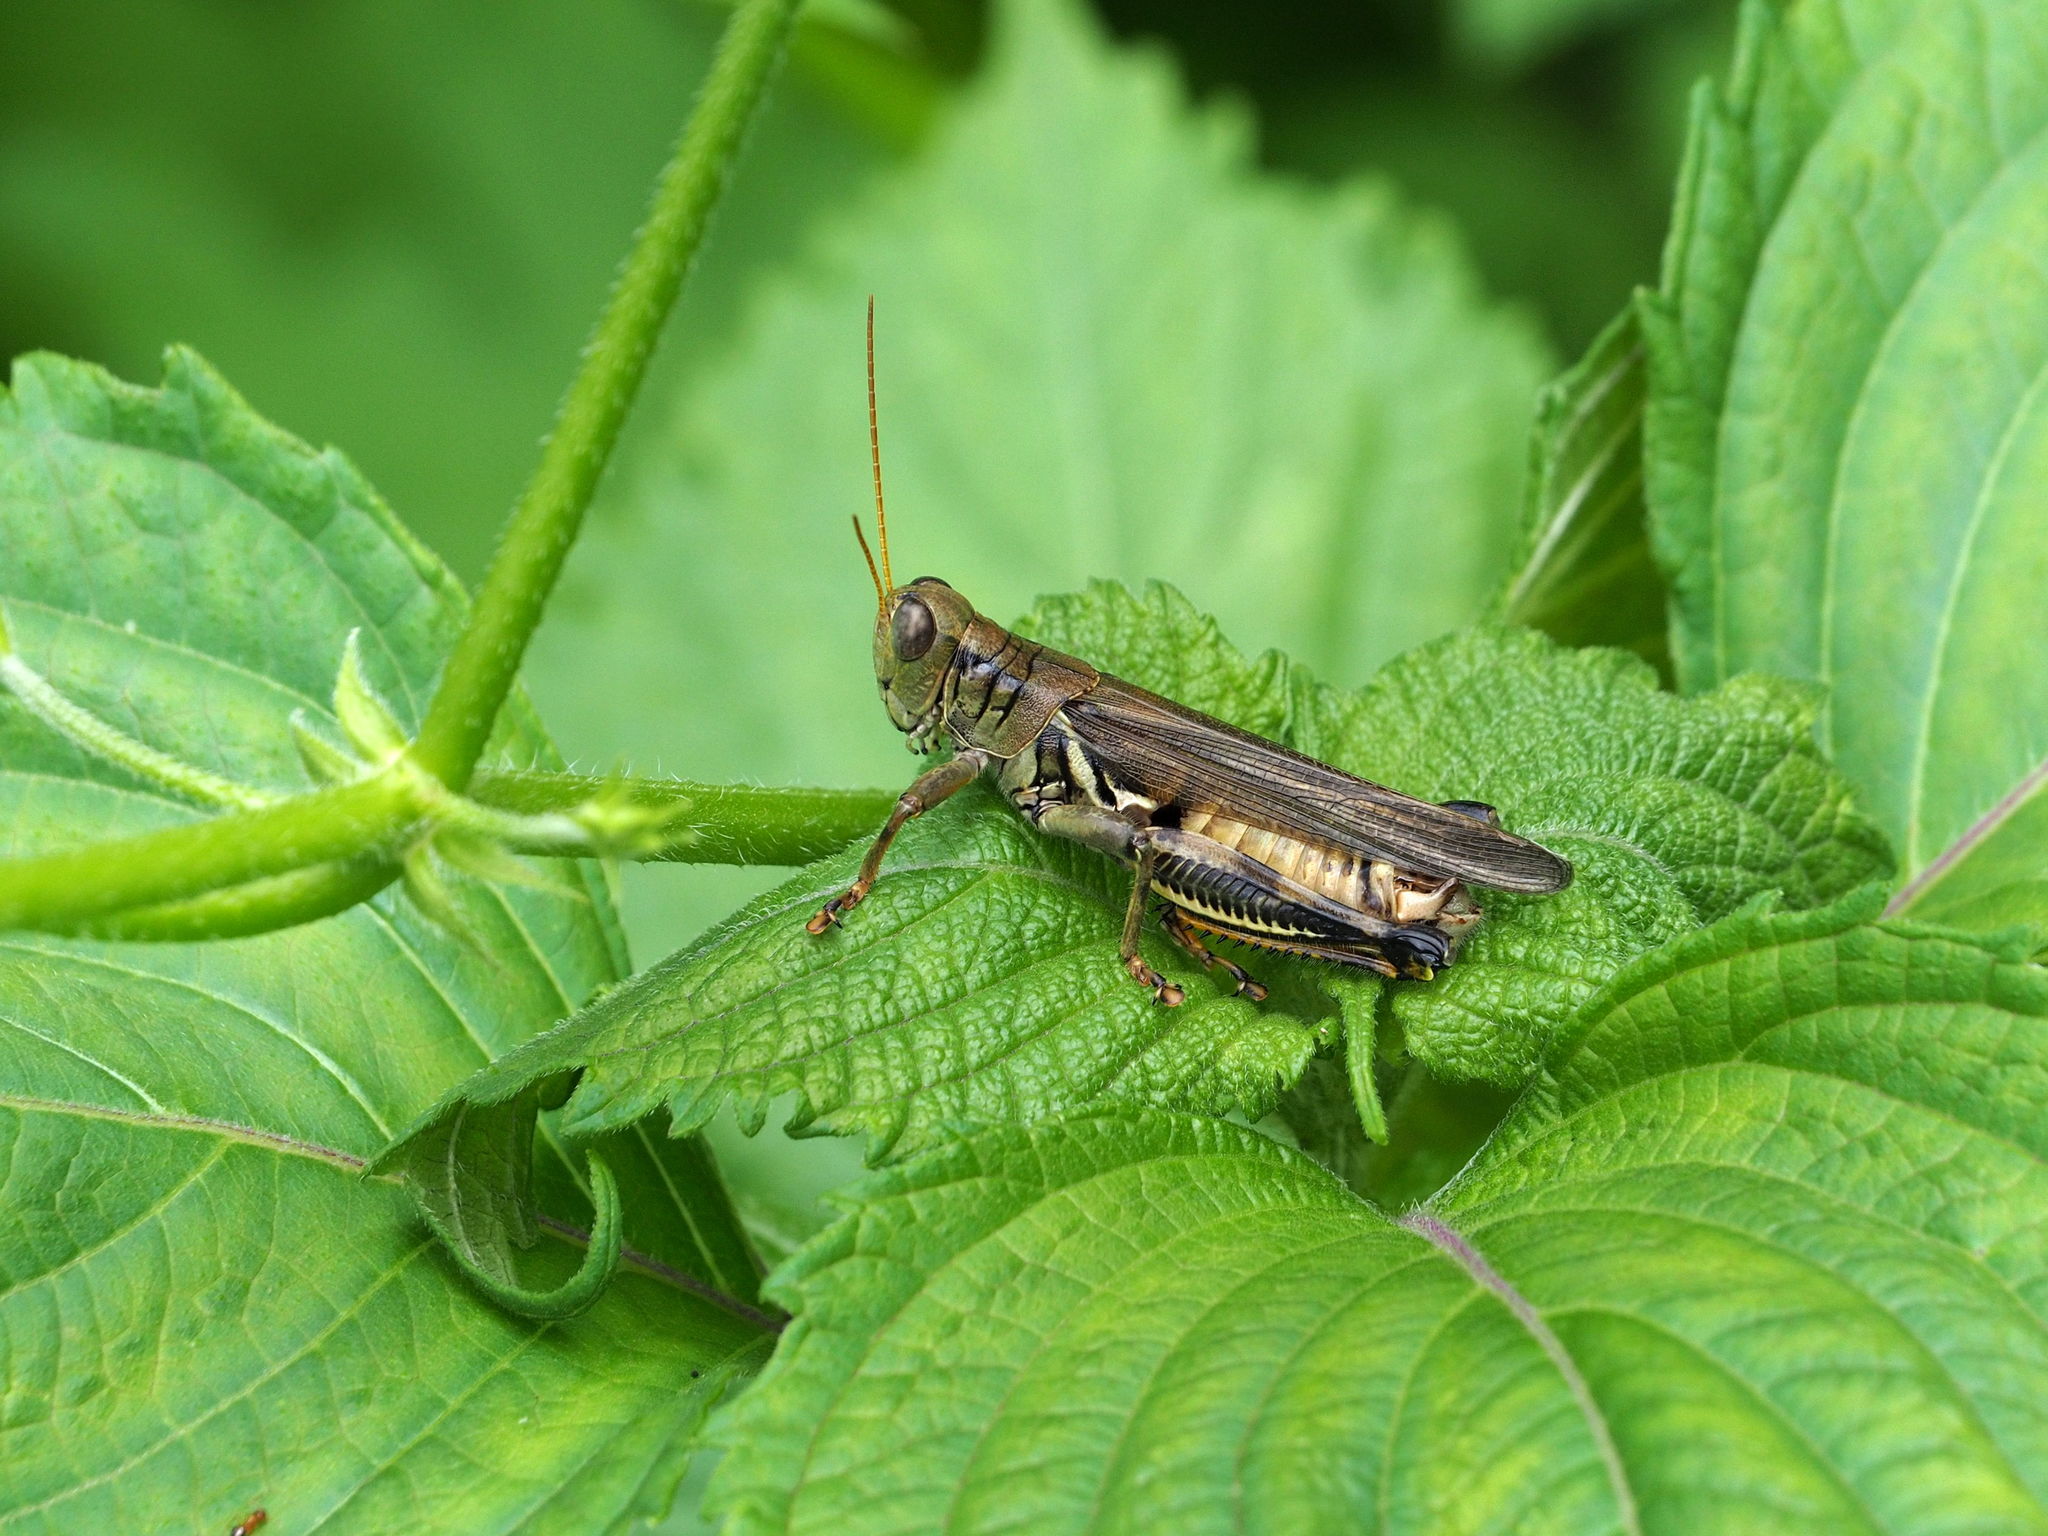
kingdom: Animalia
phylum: Arthropoda
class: Insecta
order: Orthoptera
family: Acrididae
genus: Melanoplus
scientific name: Melanoplus differentialis
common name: Differential grasshopper
